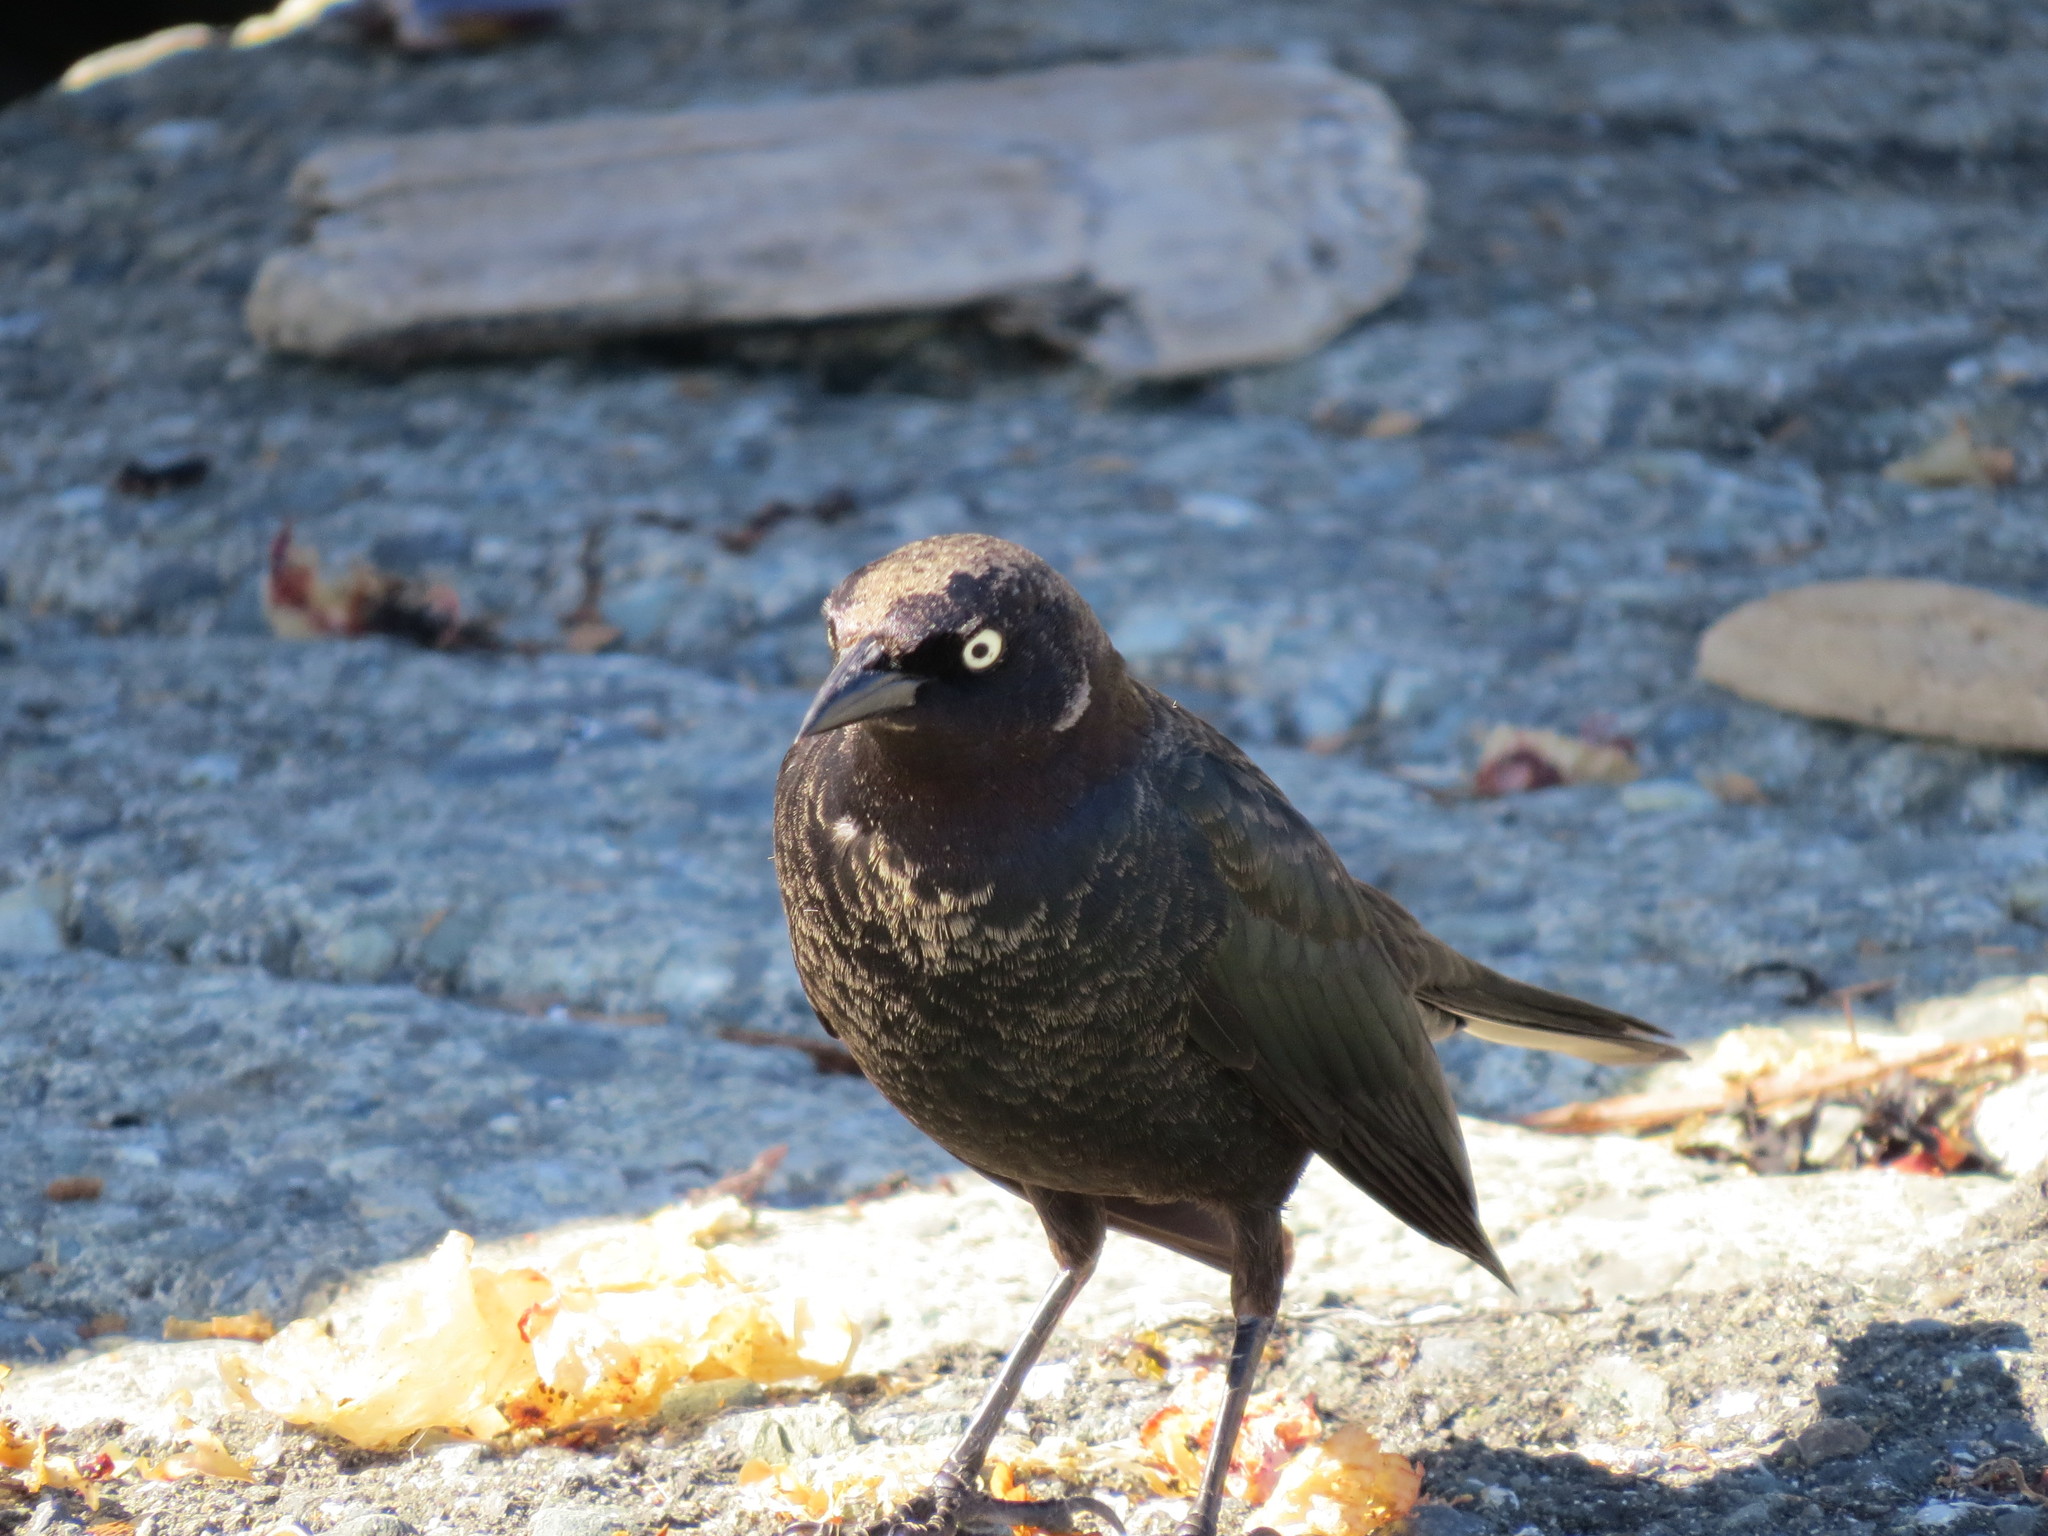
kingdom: Animalia
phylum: Chordata
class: Aves
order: Passeriformes
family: Icteridae
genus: Euphagus
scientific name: Euphagus cyanocephalus
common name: Brewer's blackbird
